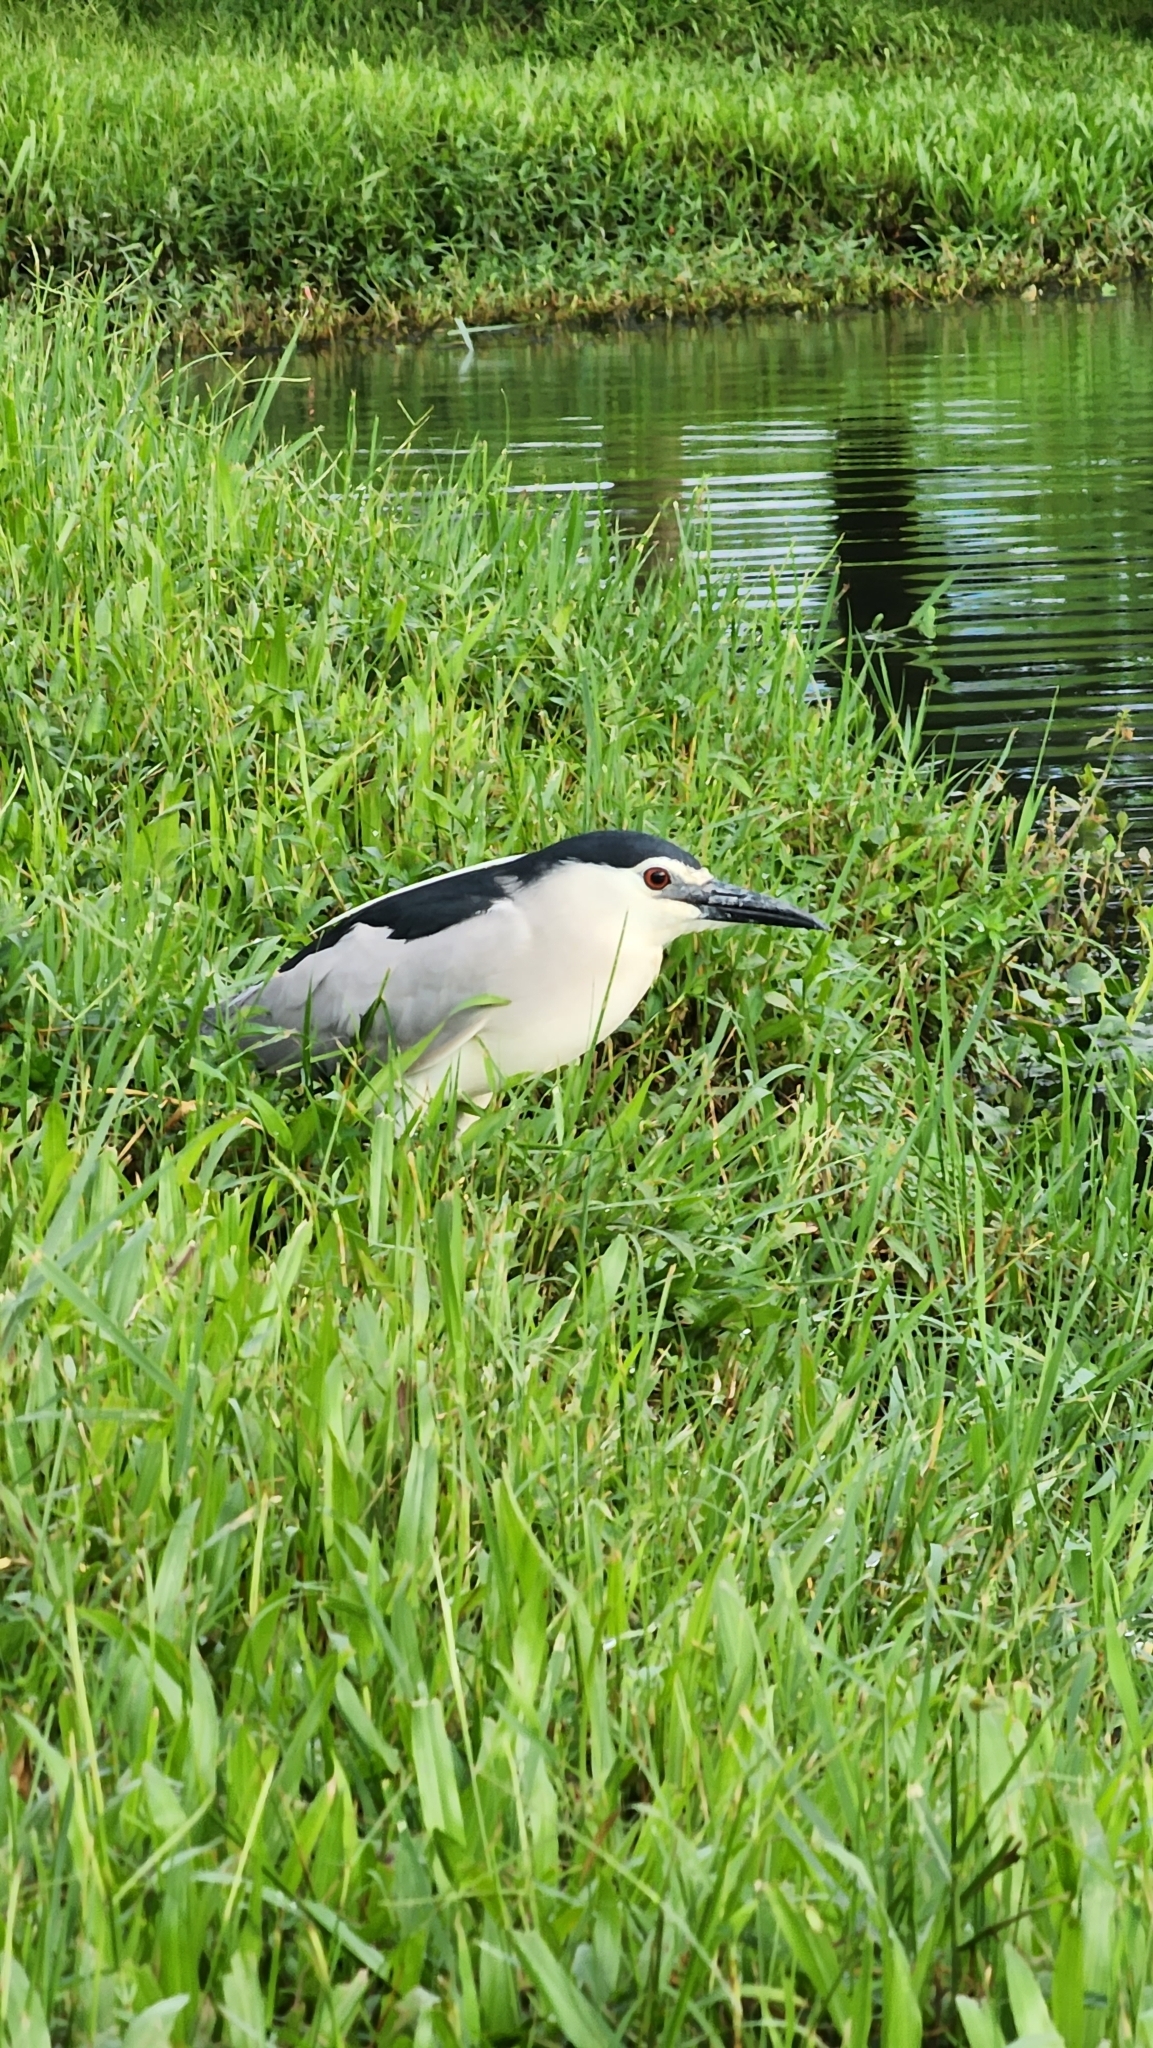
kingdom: Animalia
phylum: Chordata
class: Aves
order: Pelecaniformes
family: Ardeidae
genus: Nycticorax
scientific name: Nycticorax nycticorax
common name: Black-crowned night heron
